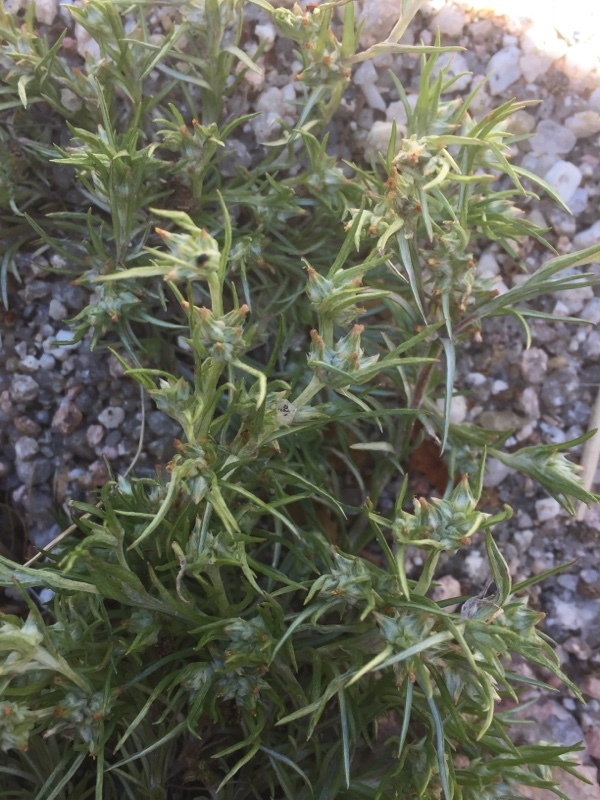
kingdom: Plantae
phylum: Tracheophyta
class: Magnoliopsida
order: Asterales
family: Asteraceae
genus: Logfia
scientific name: Logfia gallica
